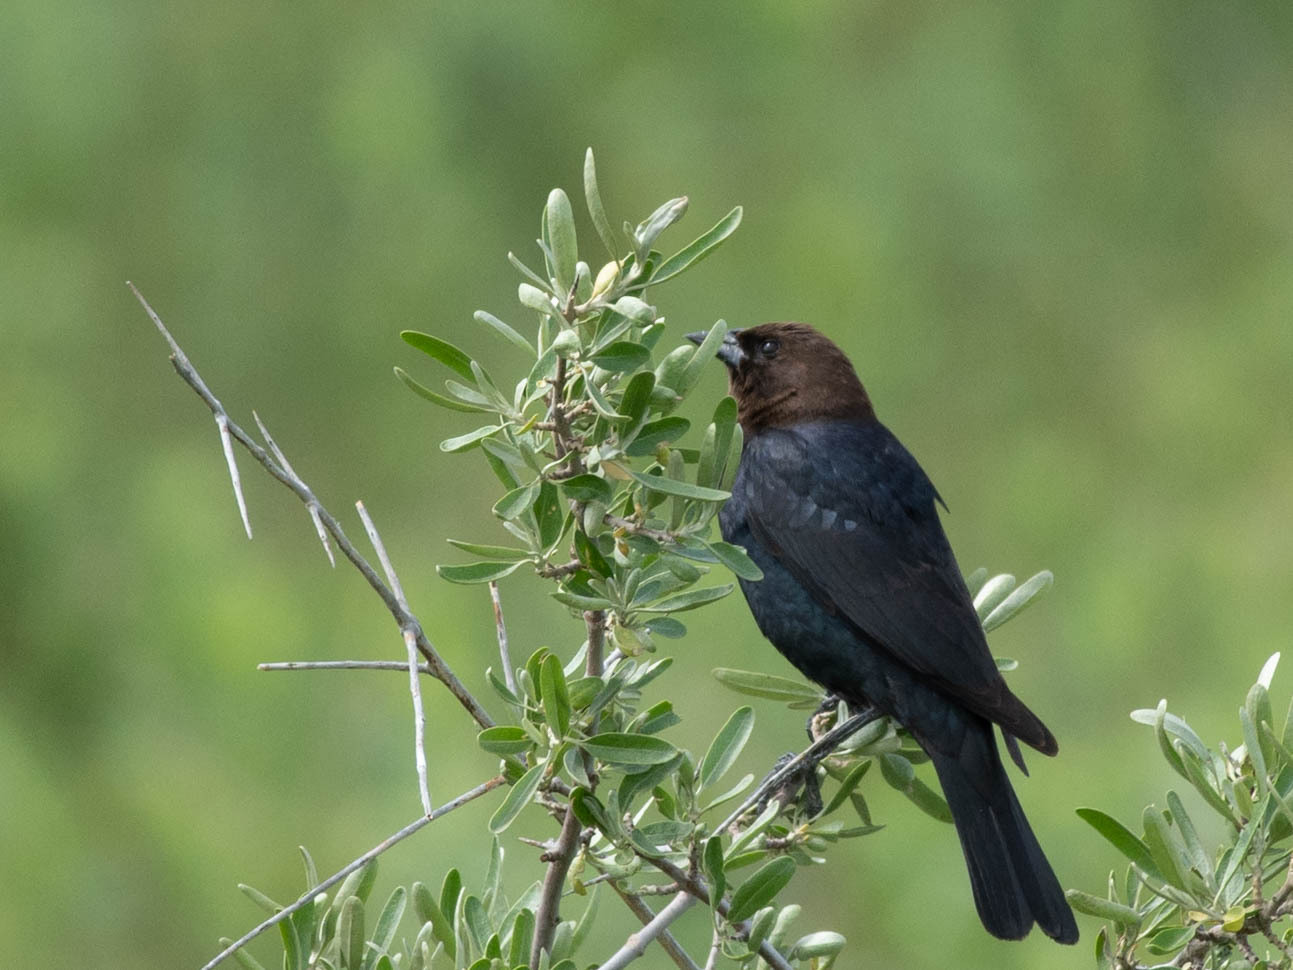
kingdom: Animalia
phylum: Chordata
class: Aves
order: Passeriformes
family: Icteridae
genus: Molothrus
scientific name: Molothrus ater
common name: Brown-headed cowbird
